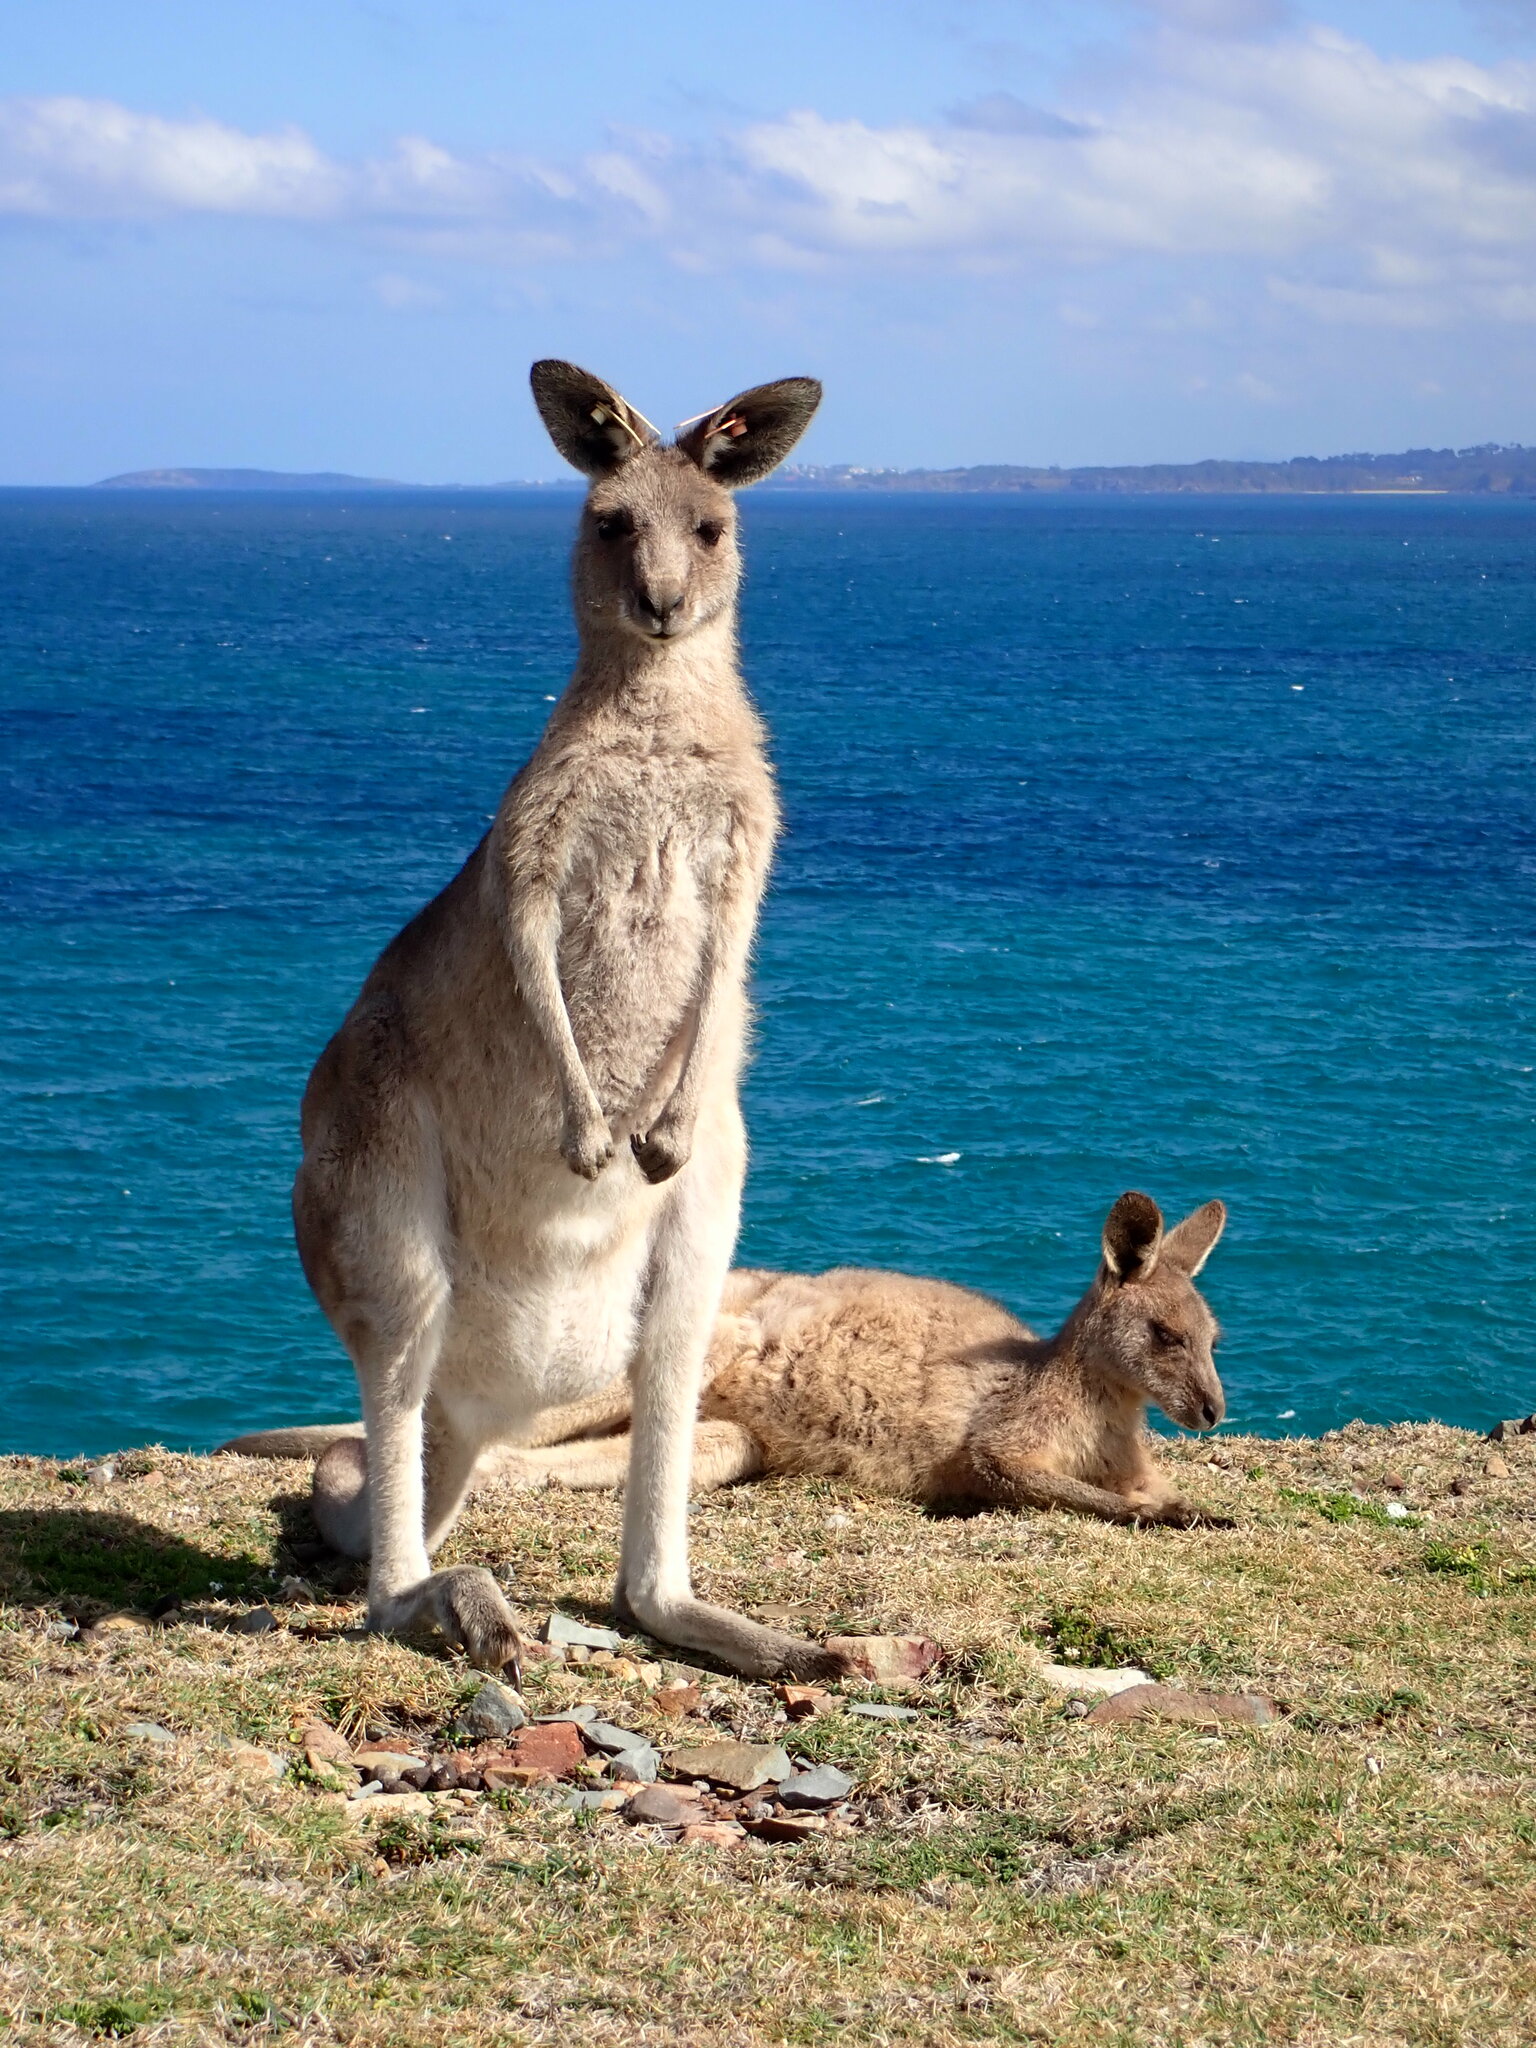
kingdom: Animalia
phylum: Chordata
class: Mammalia
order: Diprotodontia
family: Macropodidae
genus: Macropus
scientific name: Macropus giganteus
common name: Eastern grey kangaroo
